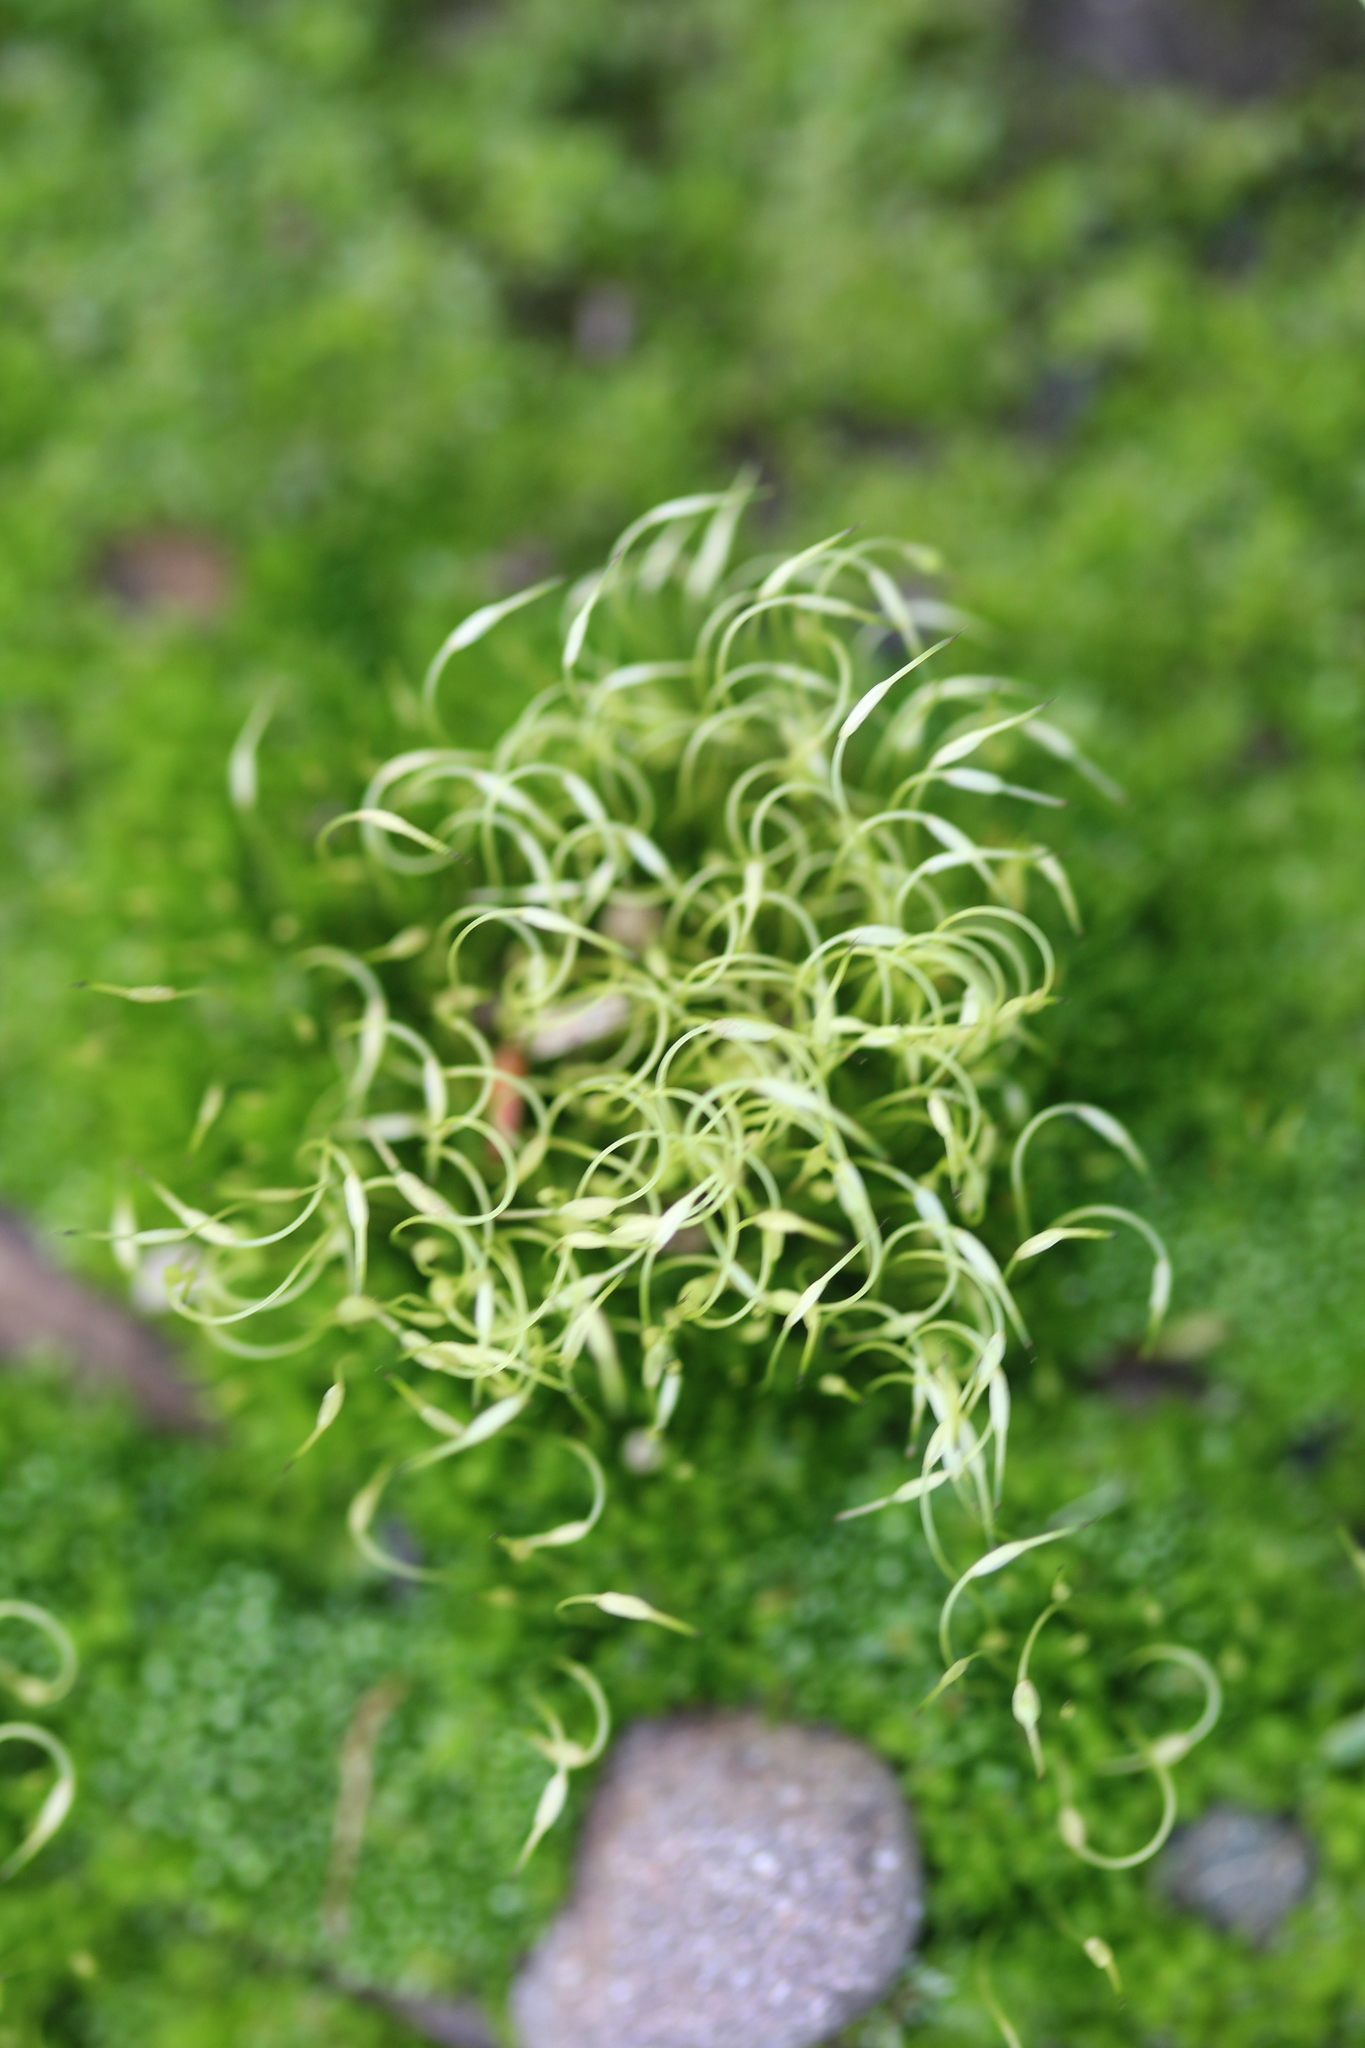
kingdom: Plantae
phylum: Bryophyta
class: Bryopsida
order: Funariales
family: Funariaceae
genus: Funaria
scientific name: Funaria hygrometrica
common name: Common cord moss
